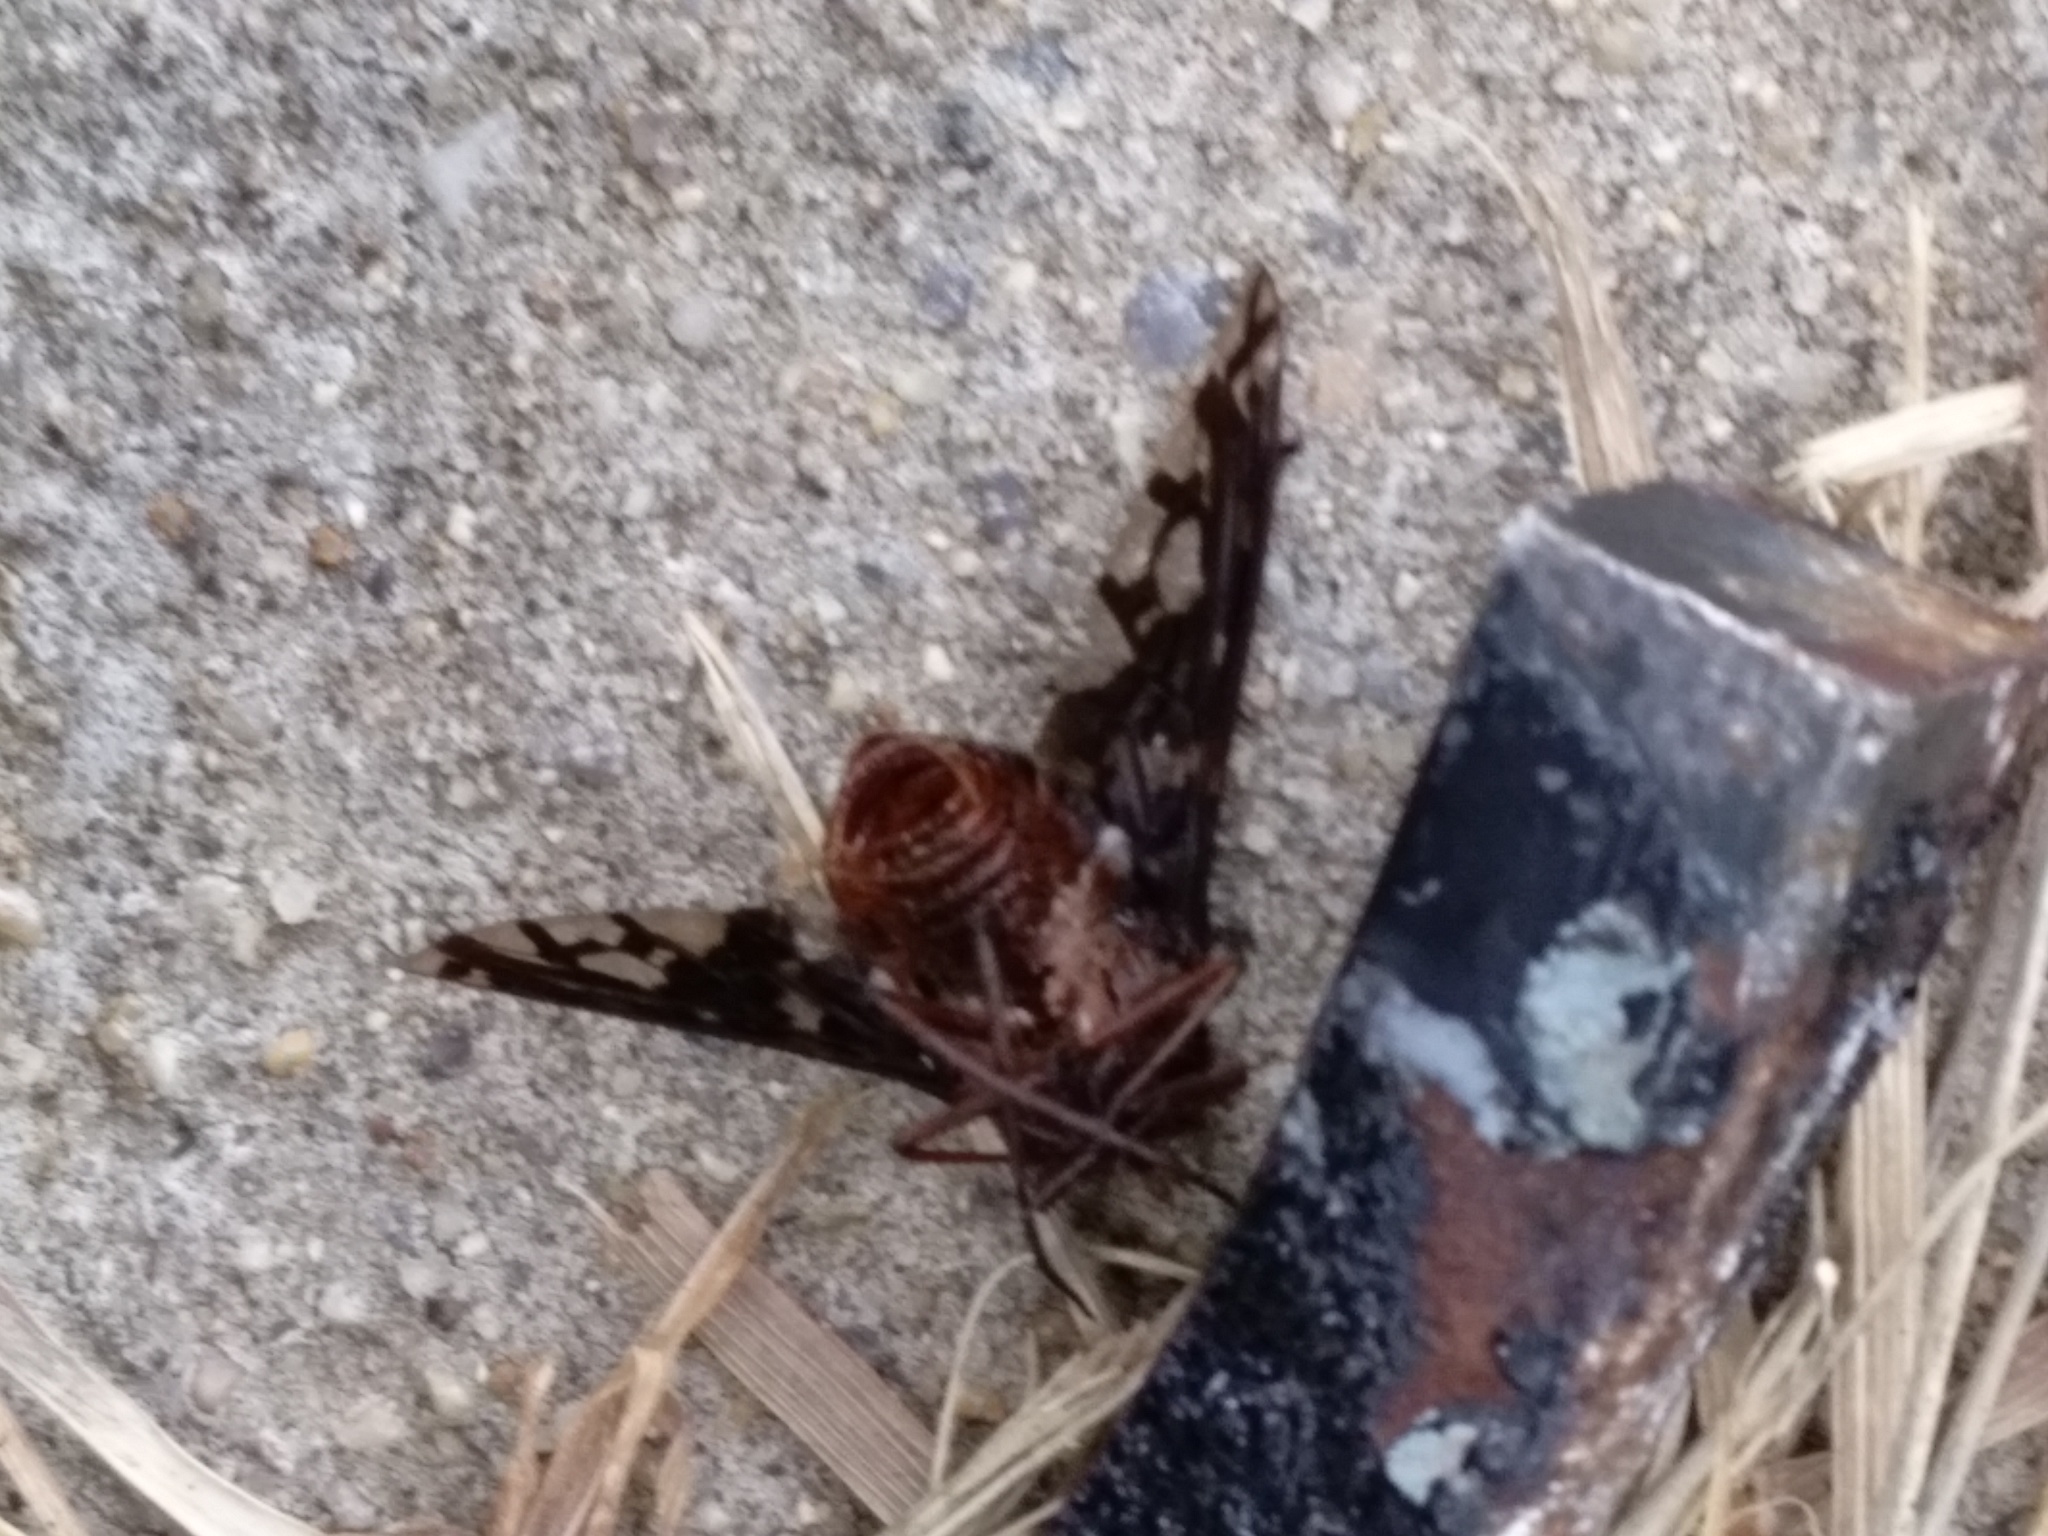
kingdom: Animalia
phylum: Arthropoda
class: Insecta
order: Diptera
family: Bombyliidae
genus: Xenox
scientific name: Xenox tigrinus
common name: Tiger bee fly
